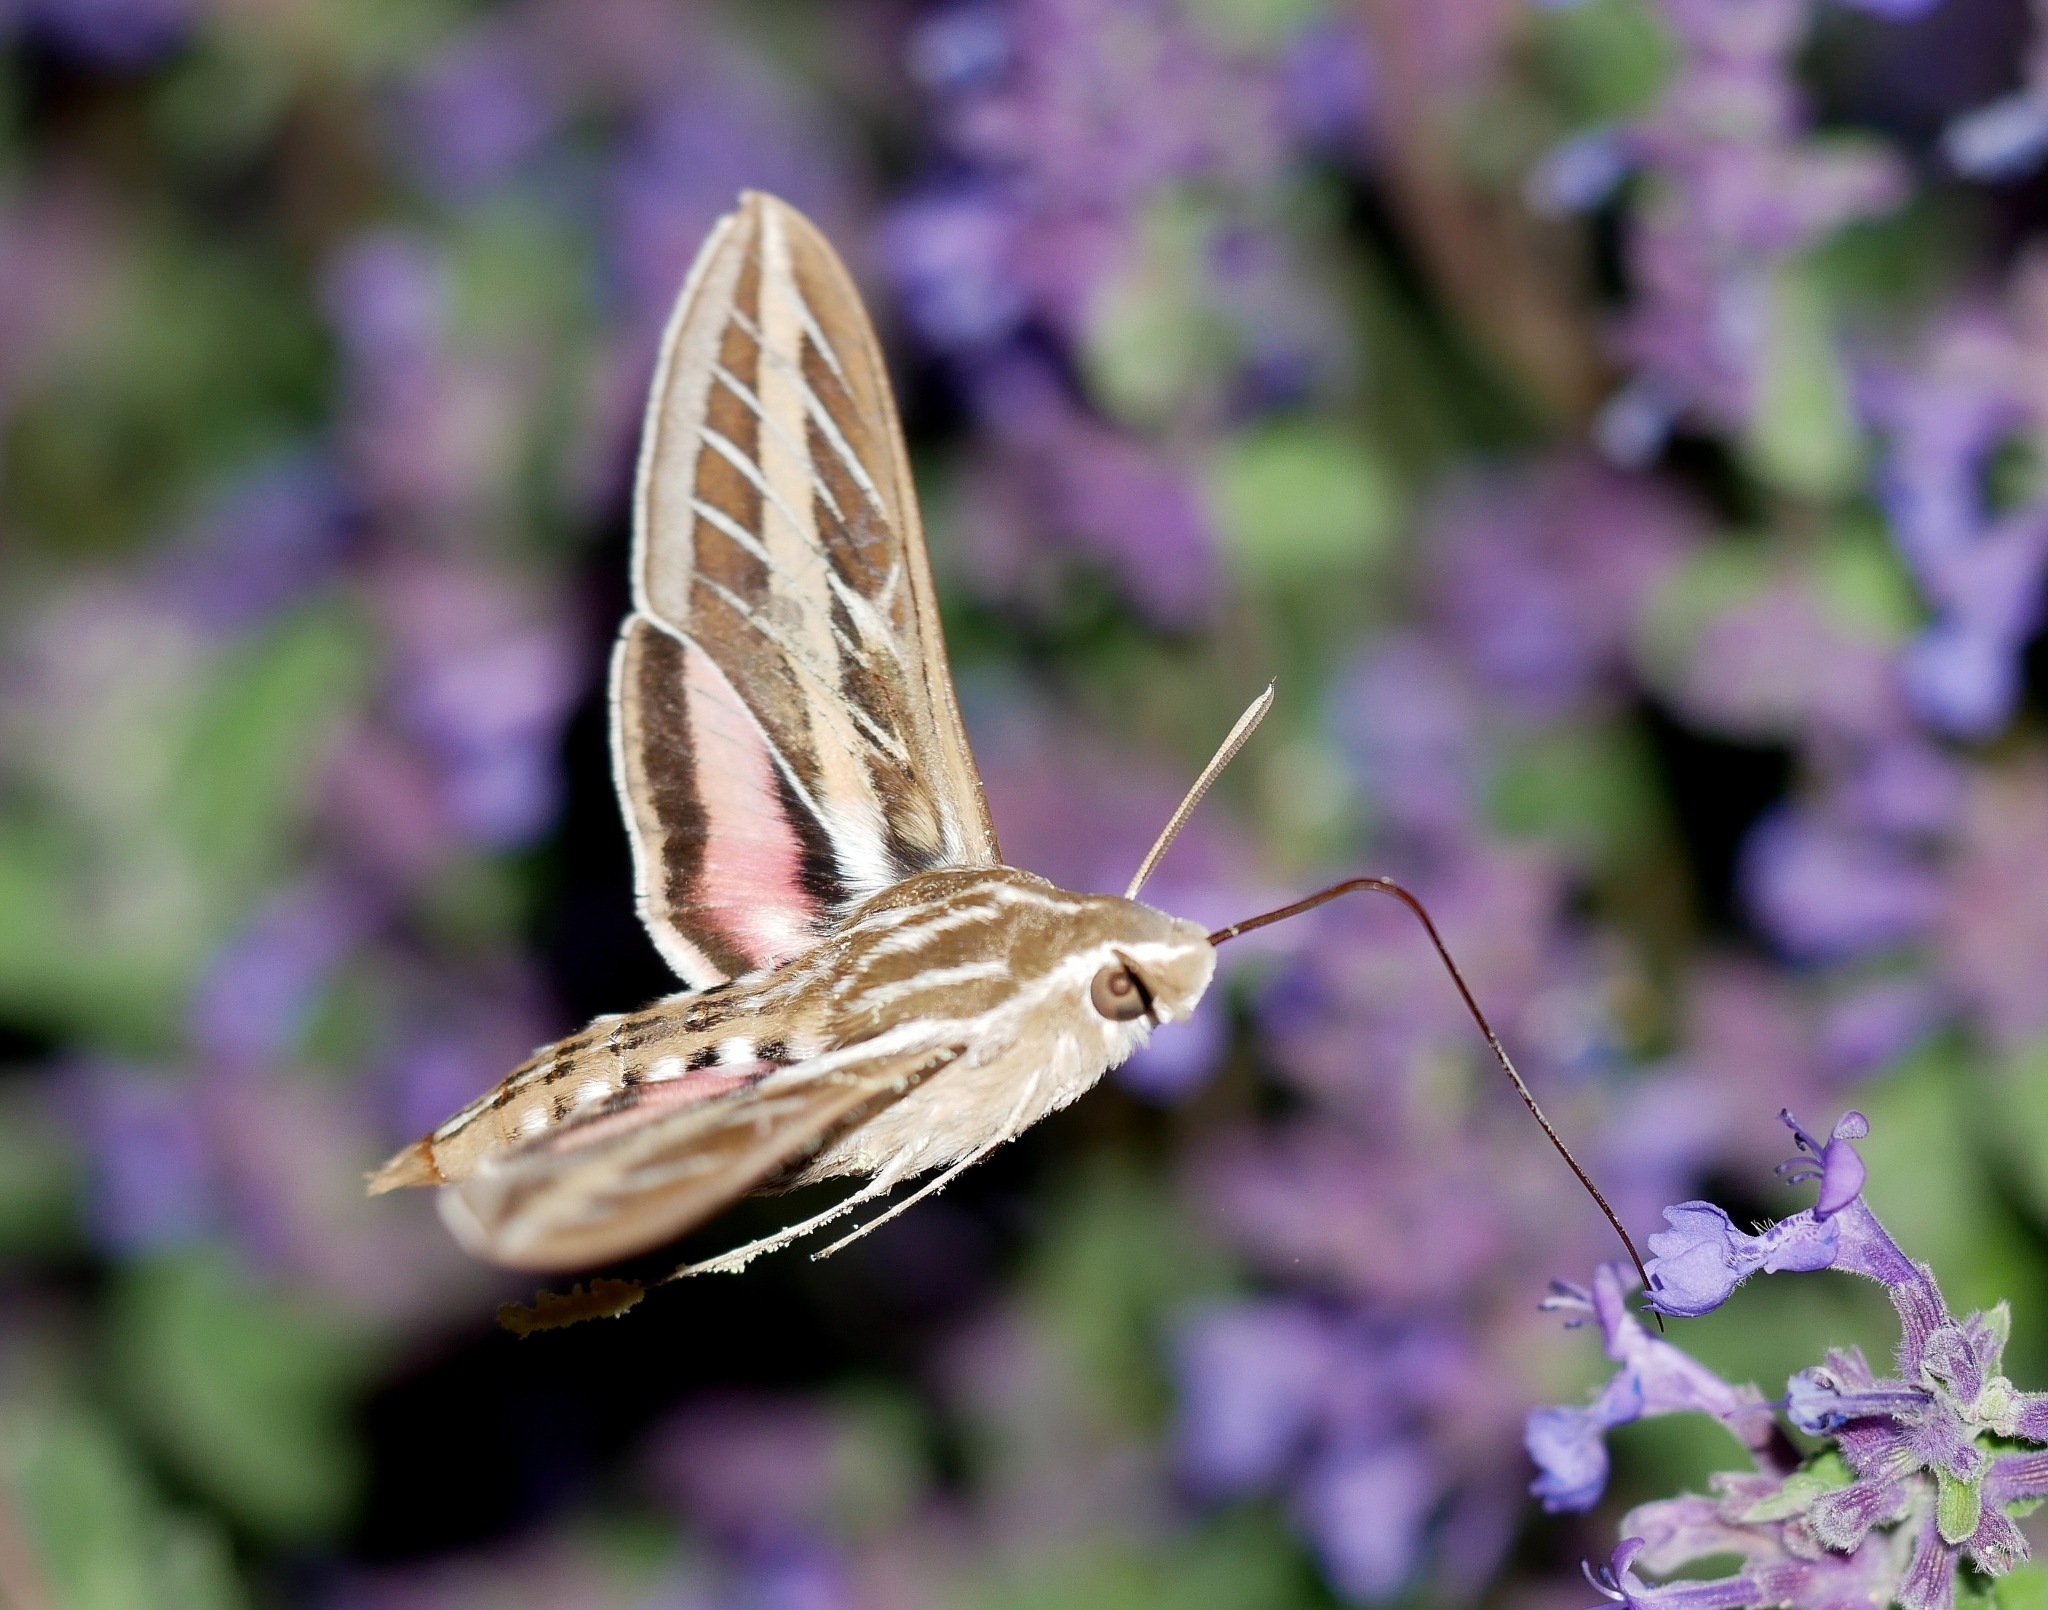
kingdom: Animalia
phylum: Arthropoda
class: Insecta
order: Lepidoptera
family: Sphingidae
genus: Hyles
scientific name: Hyles lineata
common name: White-lined sphinx
